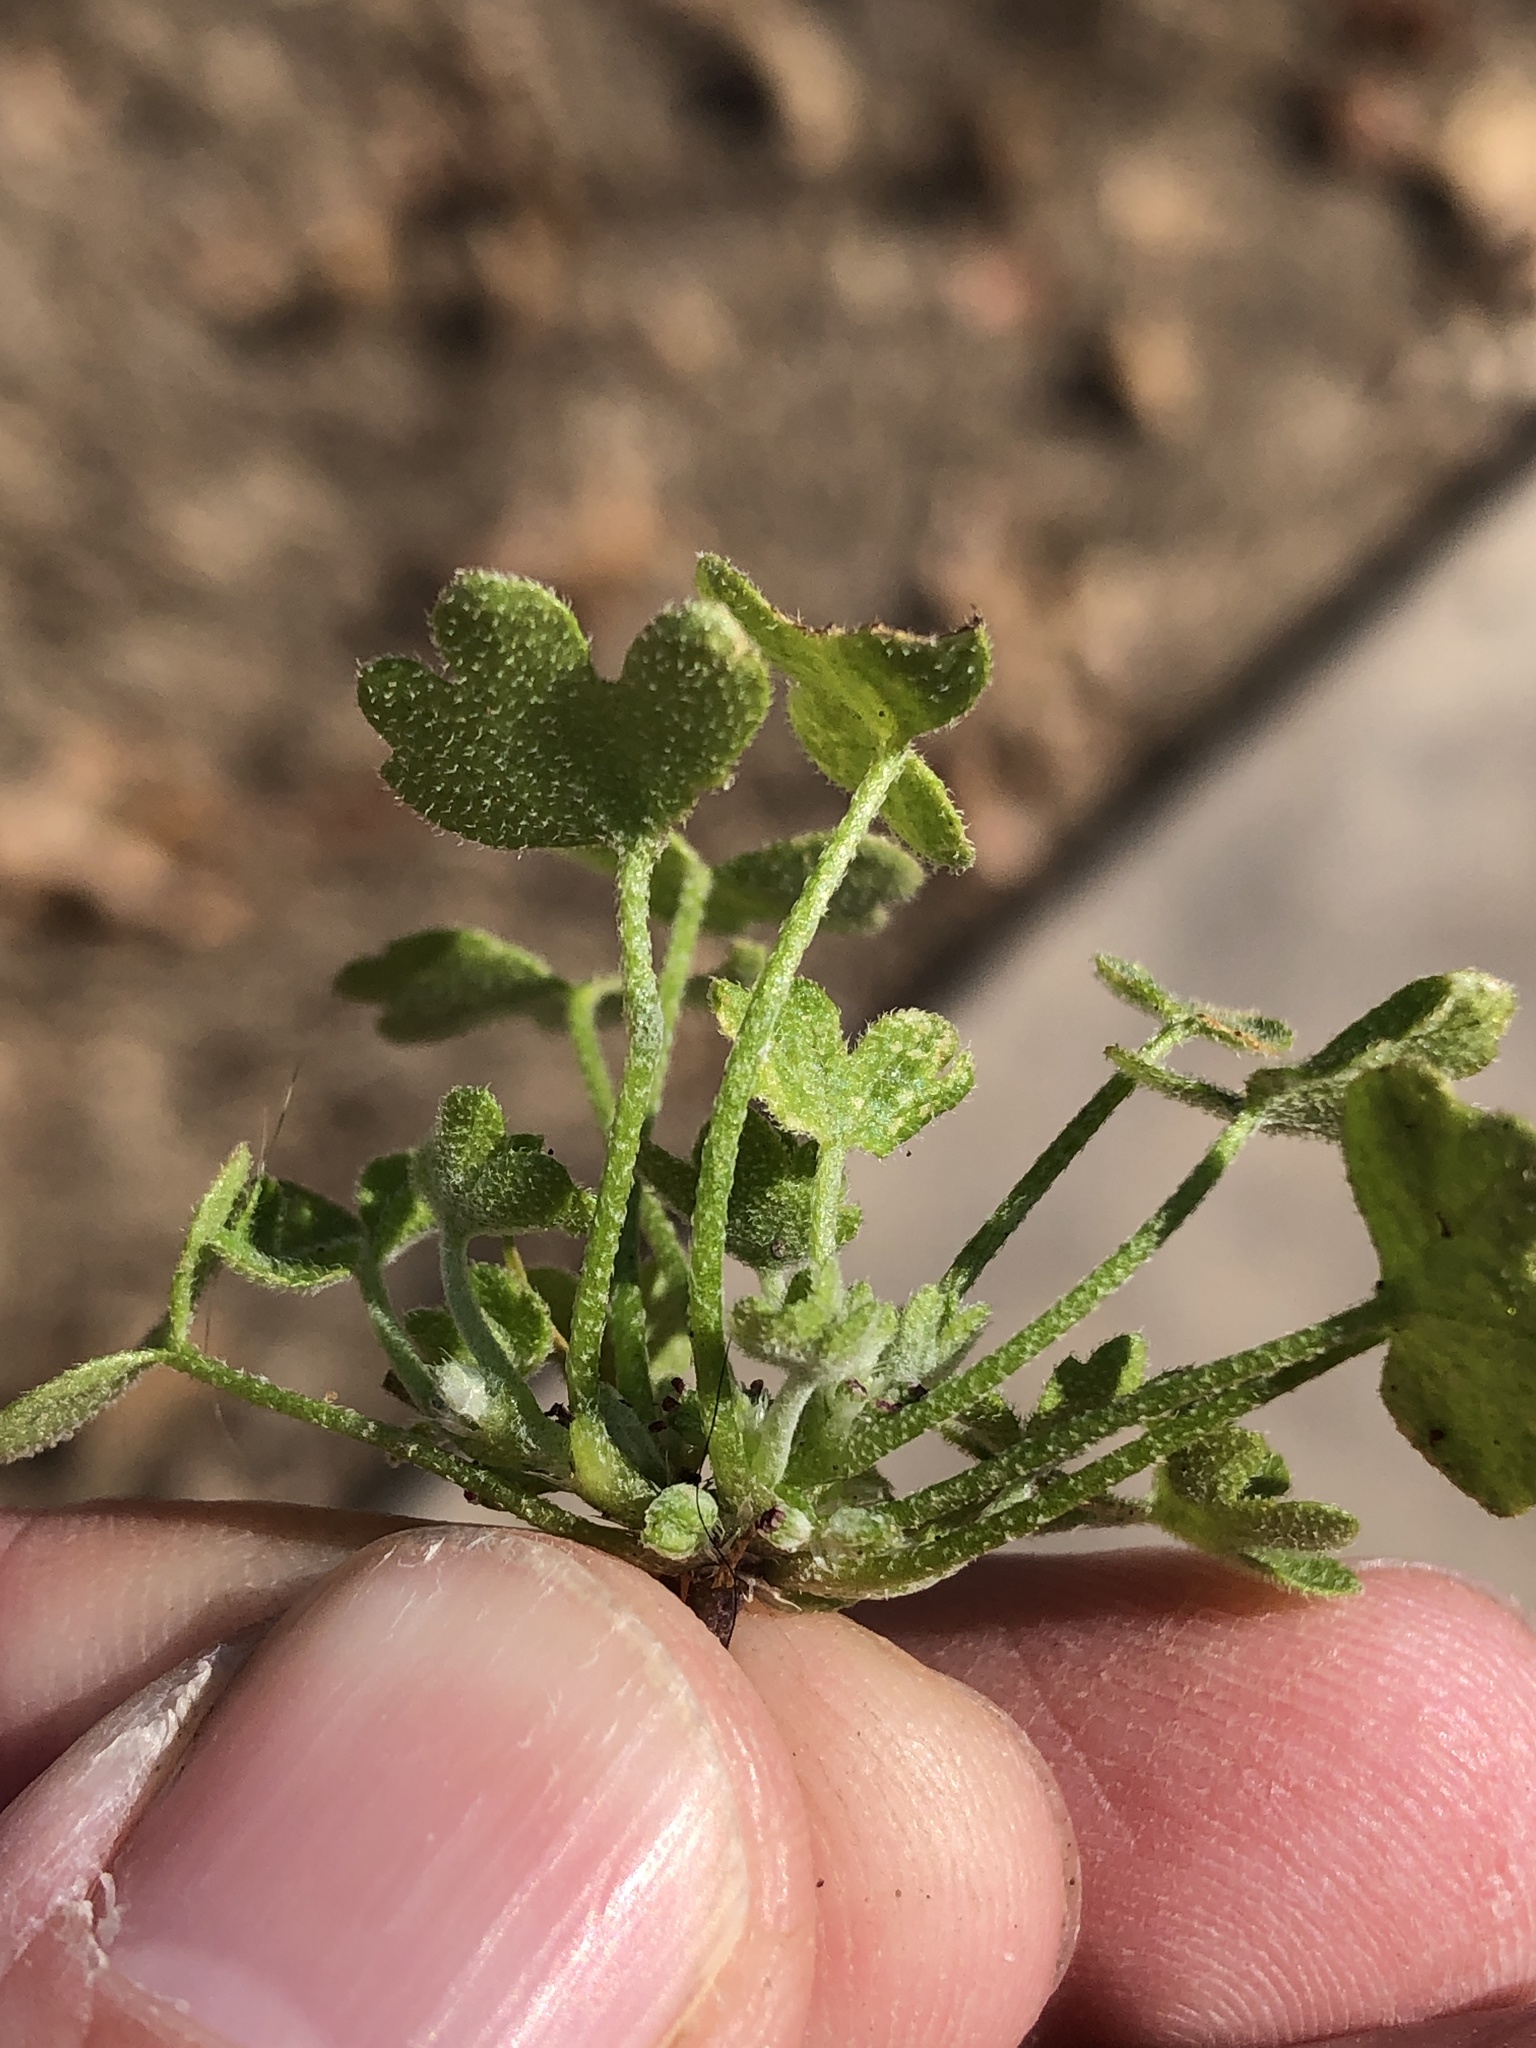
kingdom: Plantae
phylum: Tracheophyta
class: Magnoliopsida
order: Apiales
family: Apiaceae
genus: Bowlesia
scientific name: Bowlesia incana
